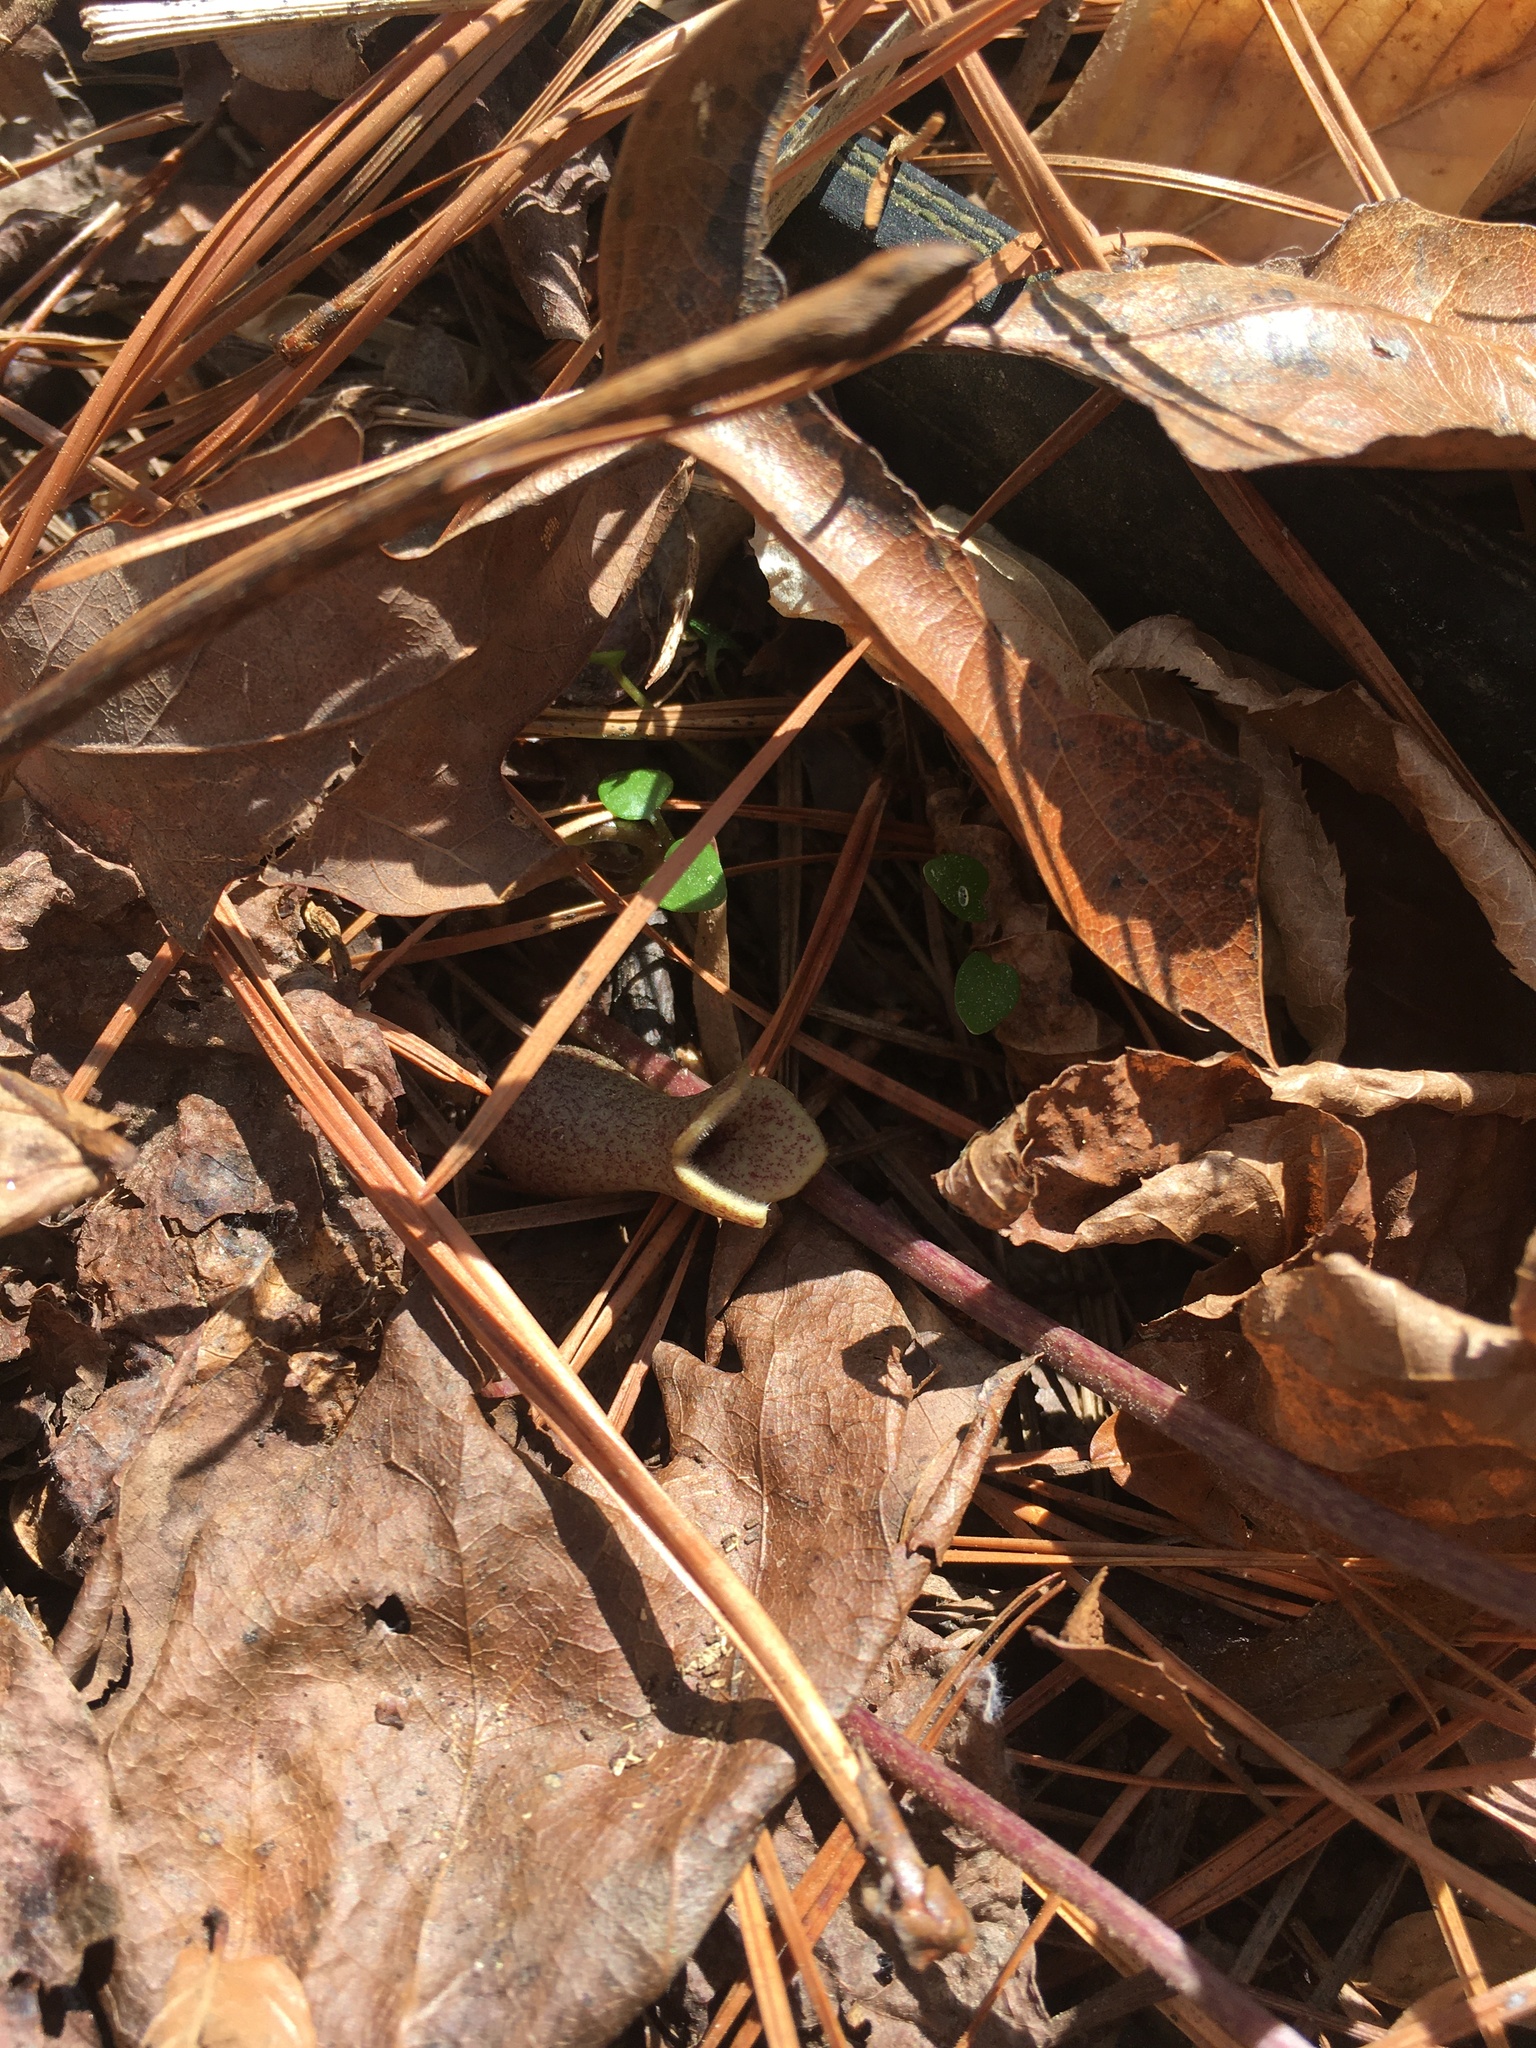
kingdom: Plantae
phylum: Tracheophyta
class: Magnoliopsida
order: Piperales
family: Aristolochiaceae
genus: Hexastylis
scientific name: Hexastylis arifolia
